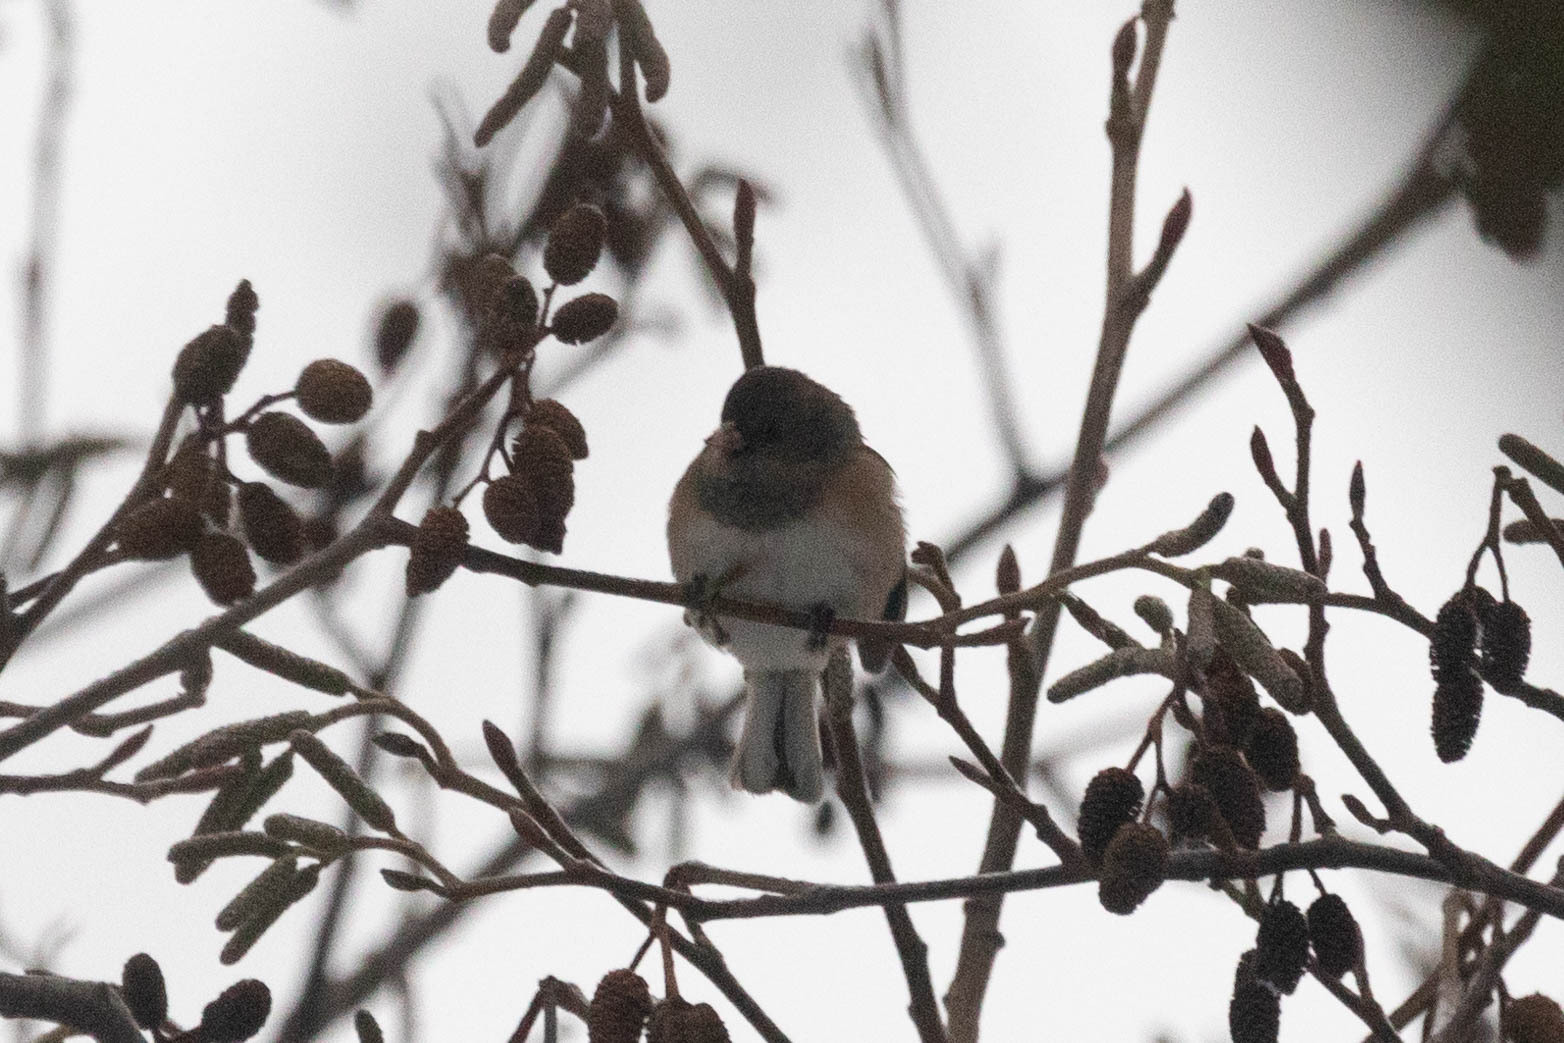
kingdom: Animalia
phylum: Chordata
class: Aves
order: Passeriformes
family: Passerellidae
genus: Junco
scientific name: Junco hyemalis
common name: Dark-eyed junco
